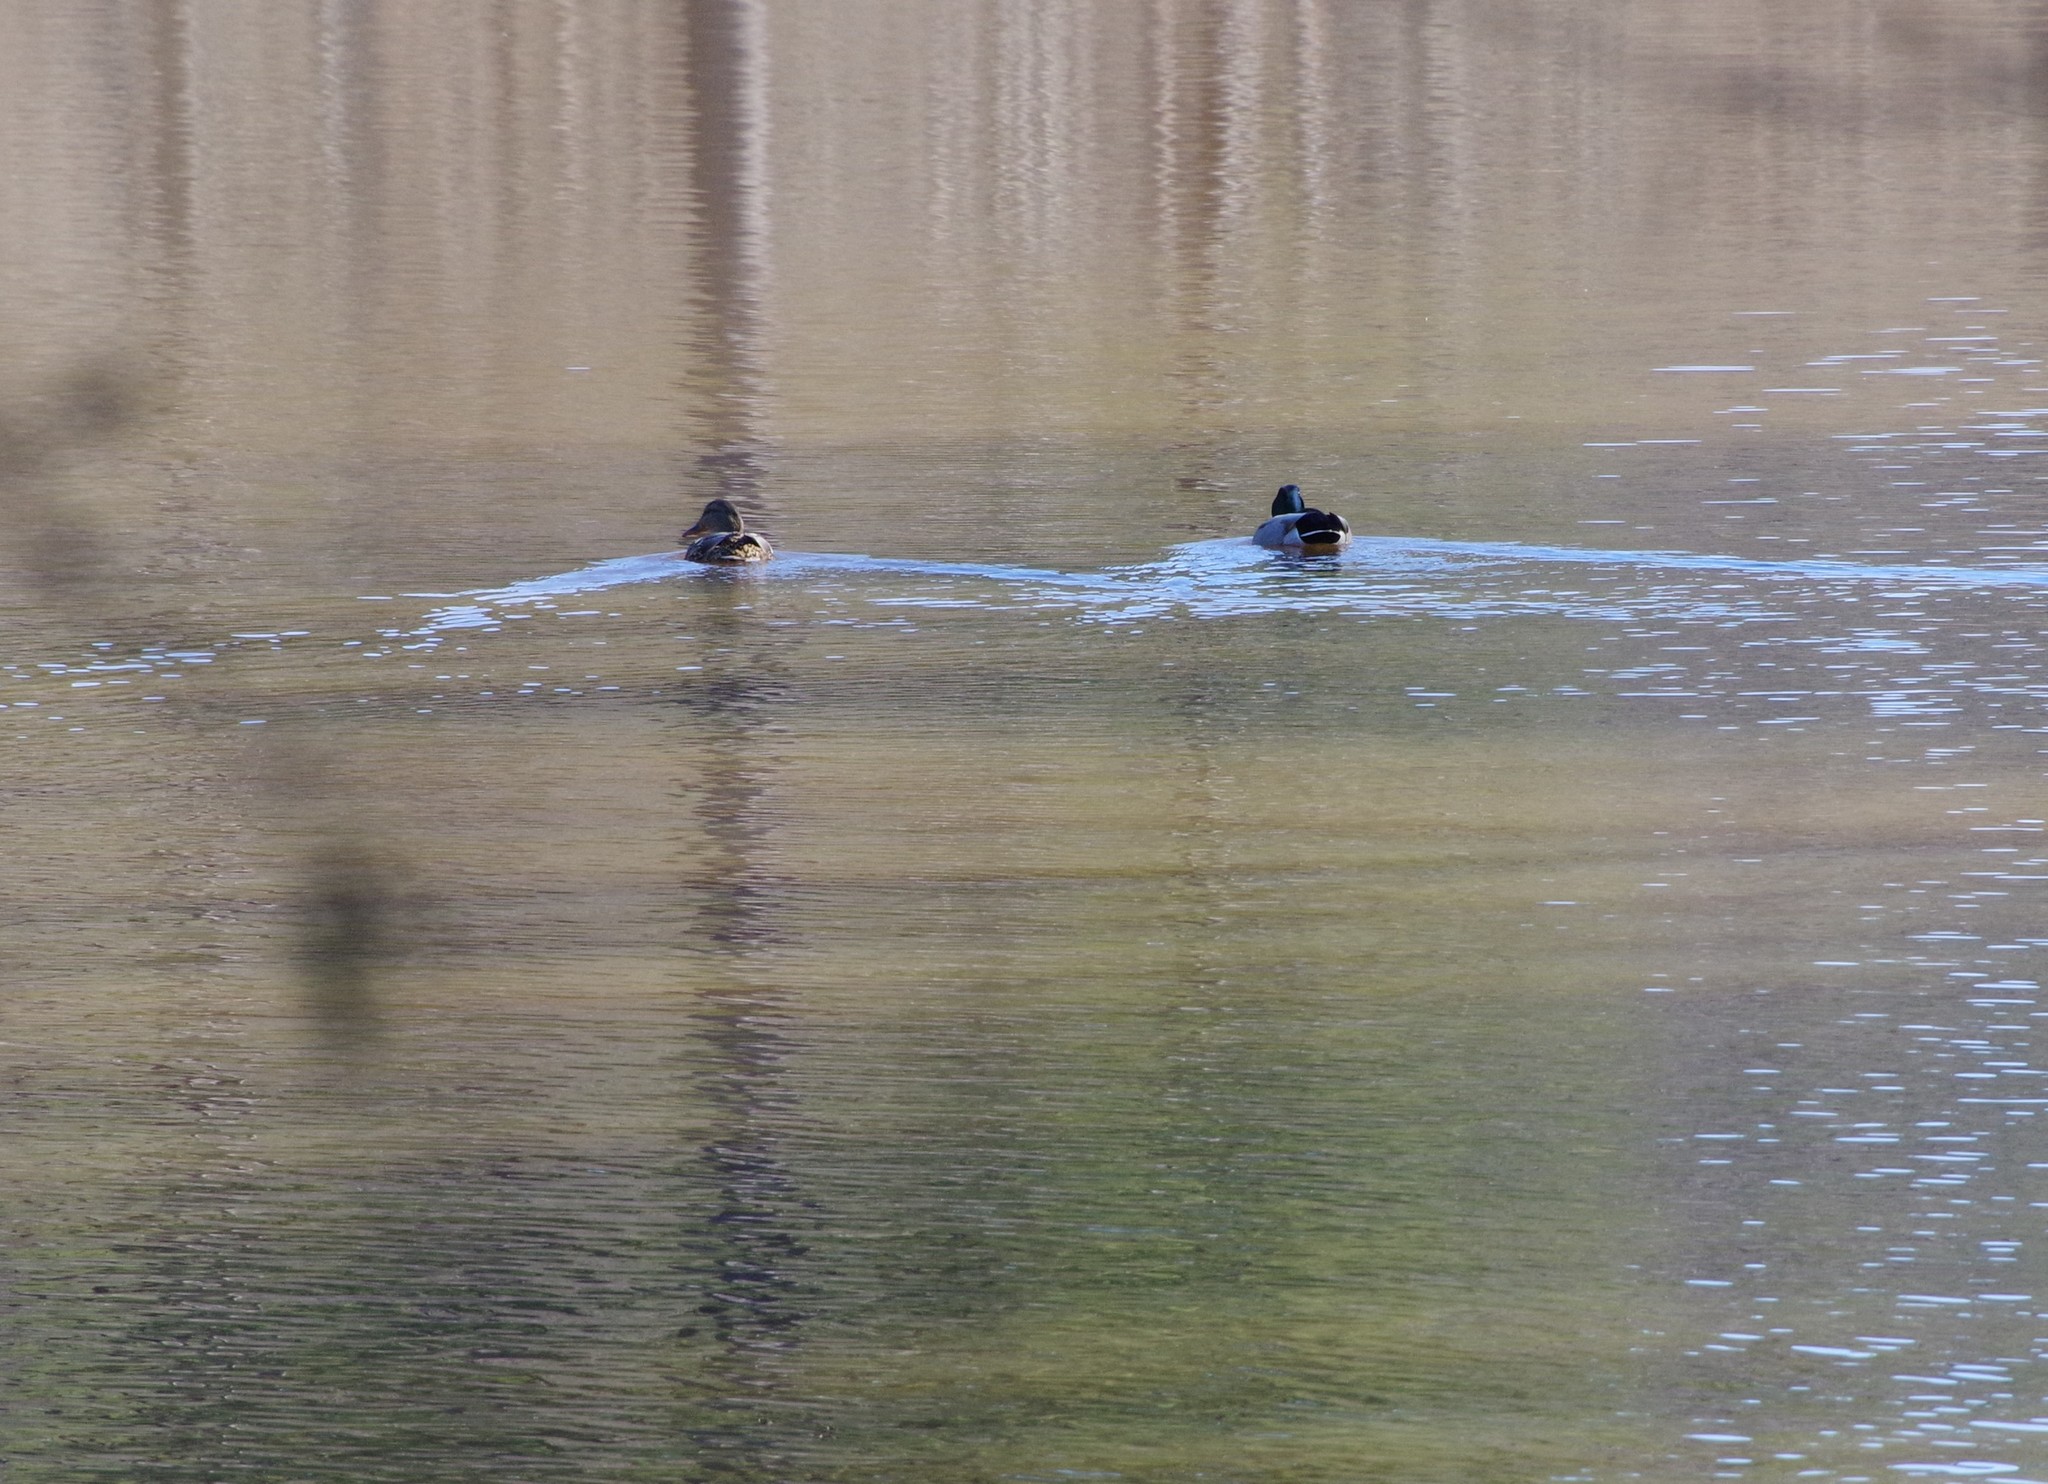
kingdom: Animalia
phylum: Chordata
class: Aves
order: Anseriformes
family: Anatidae
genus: Anas
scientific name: Anas platyrhynchos
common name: Mallard
